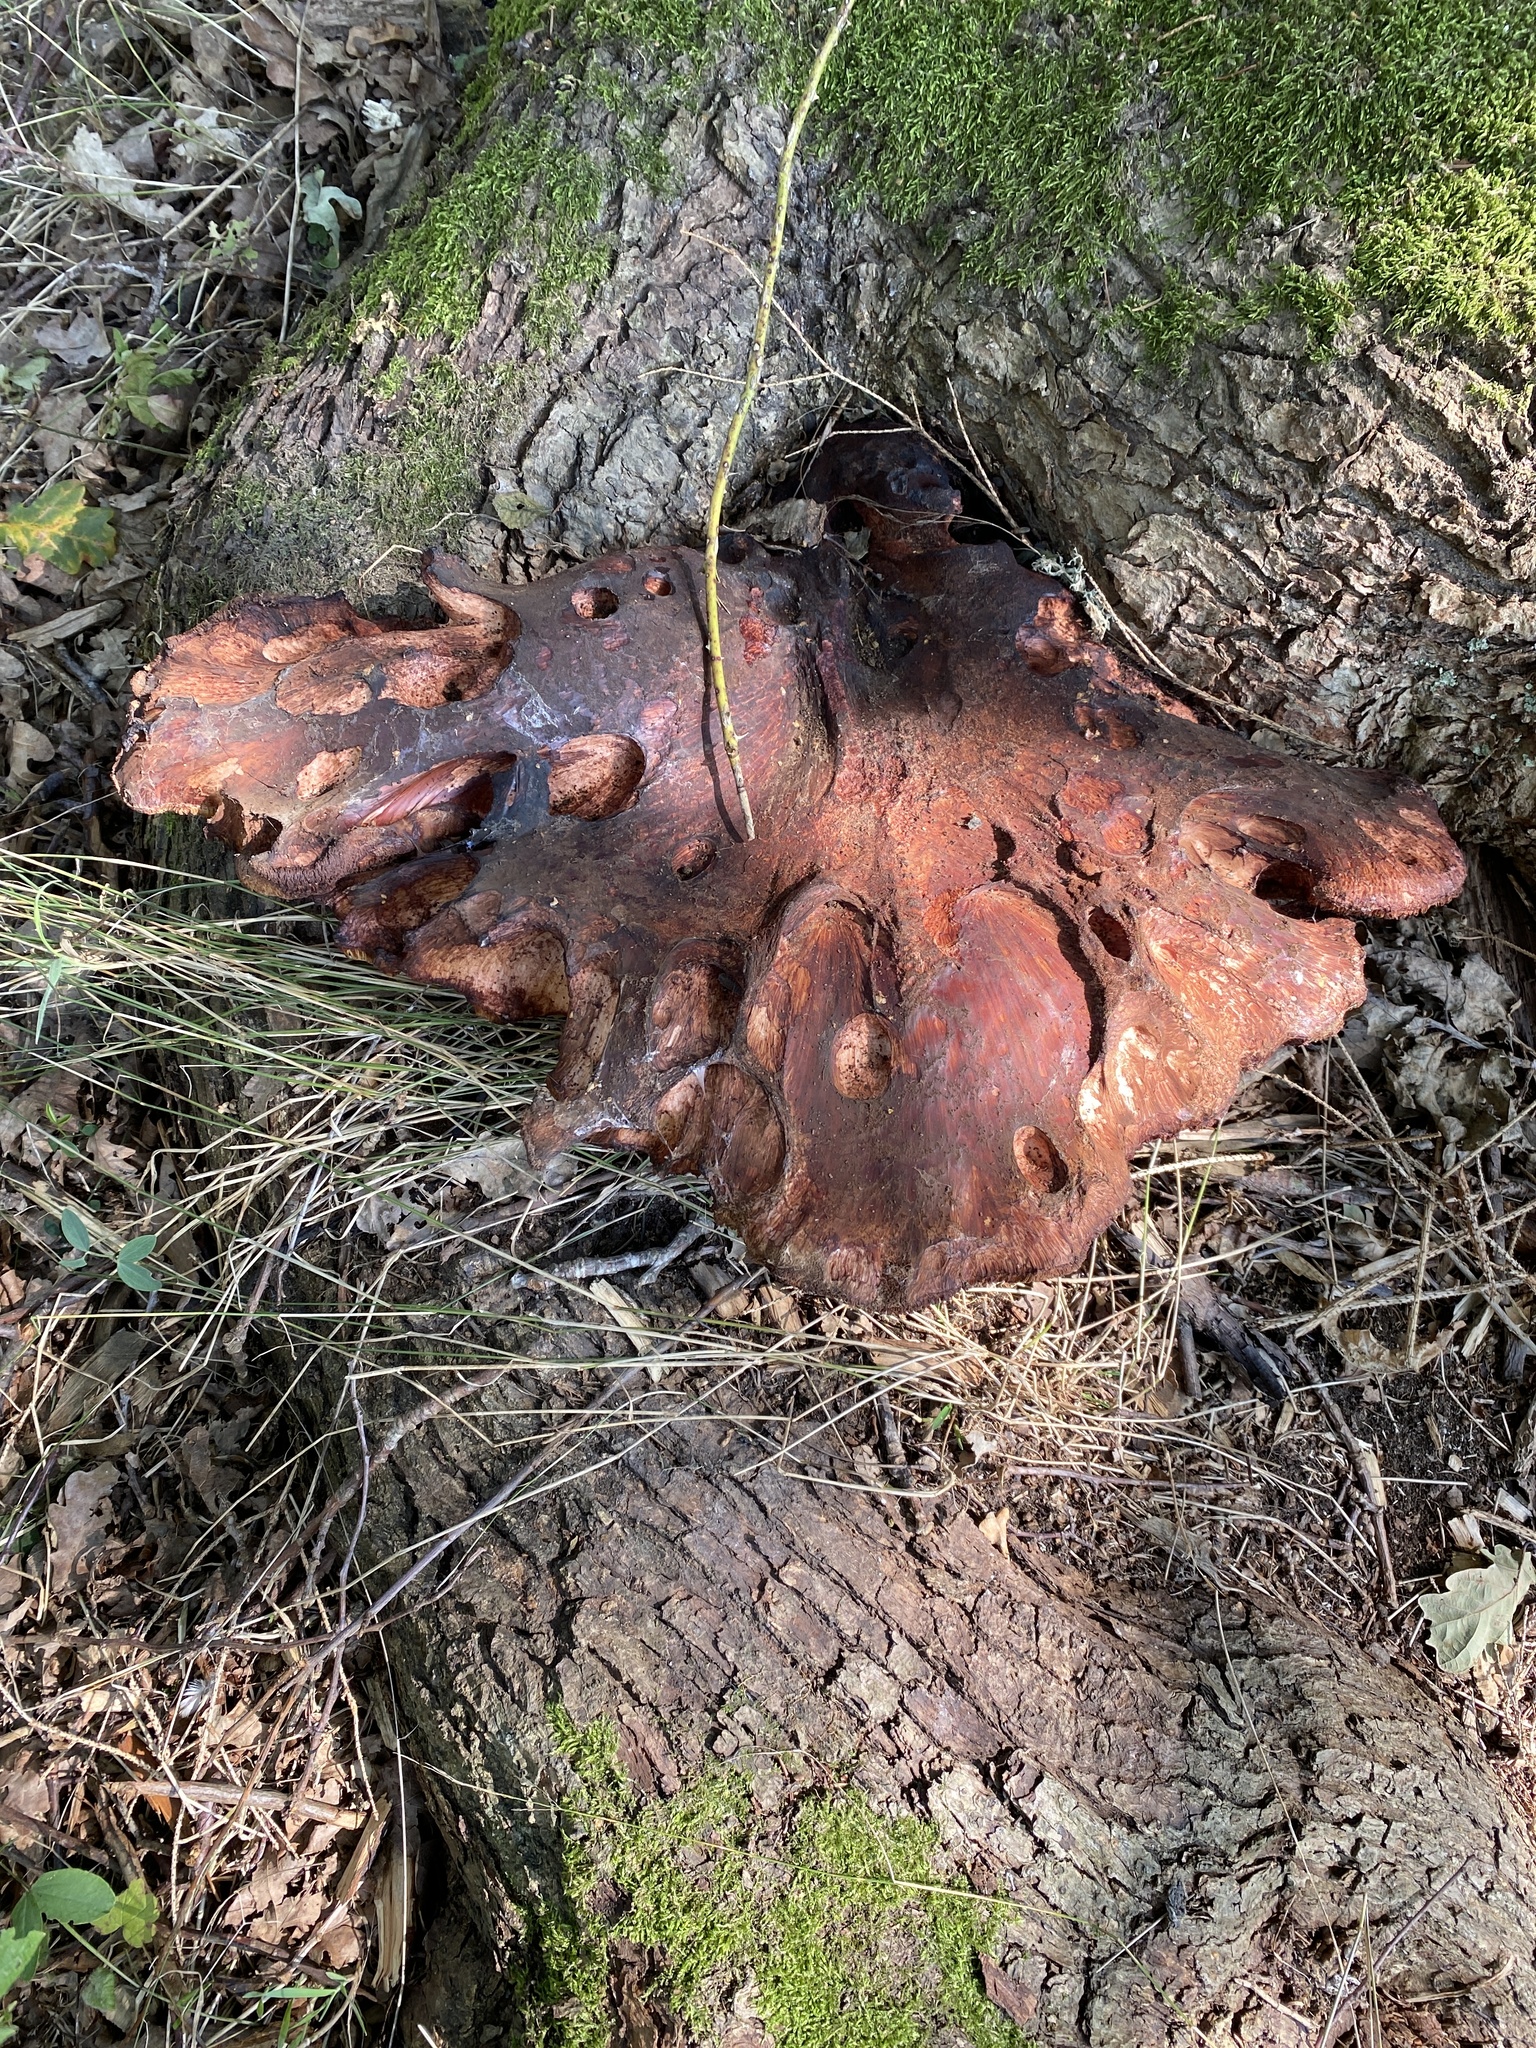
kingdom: Fungi
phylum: Basidiomycota
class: Agaricomycetes
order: Agaricales
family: Fistulinaceae
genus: Fistulina
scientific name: Fistulina hepatica
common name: Beef-steak fungus
